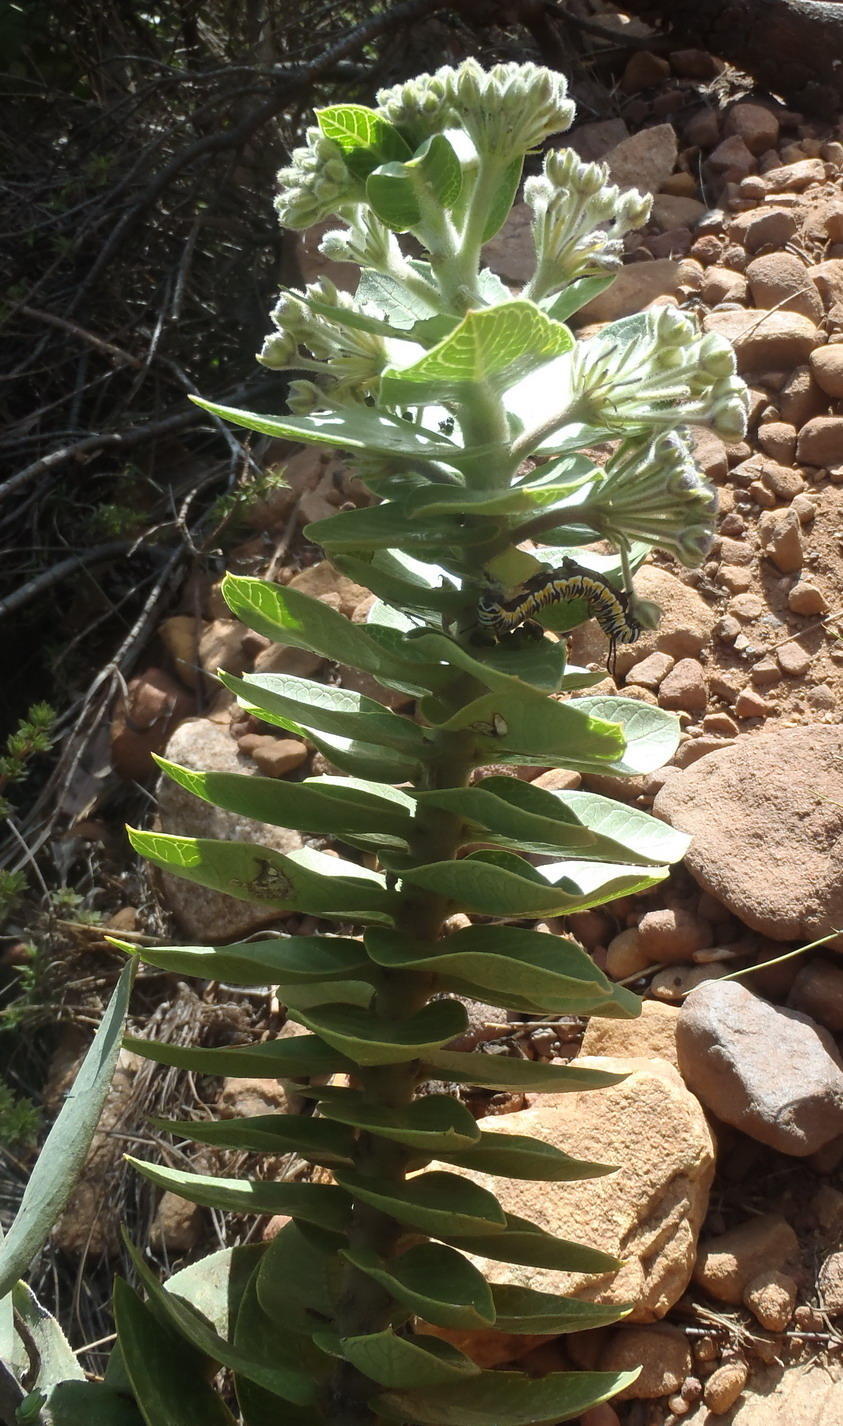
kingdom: Plantae
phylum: Tracheophyta
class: Magnoliopsida
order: Gentianales
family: Apocynaceae
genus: Gomphocarpus
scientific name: Gomphocarpus cancellatus
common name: Wild cotton
